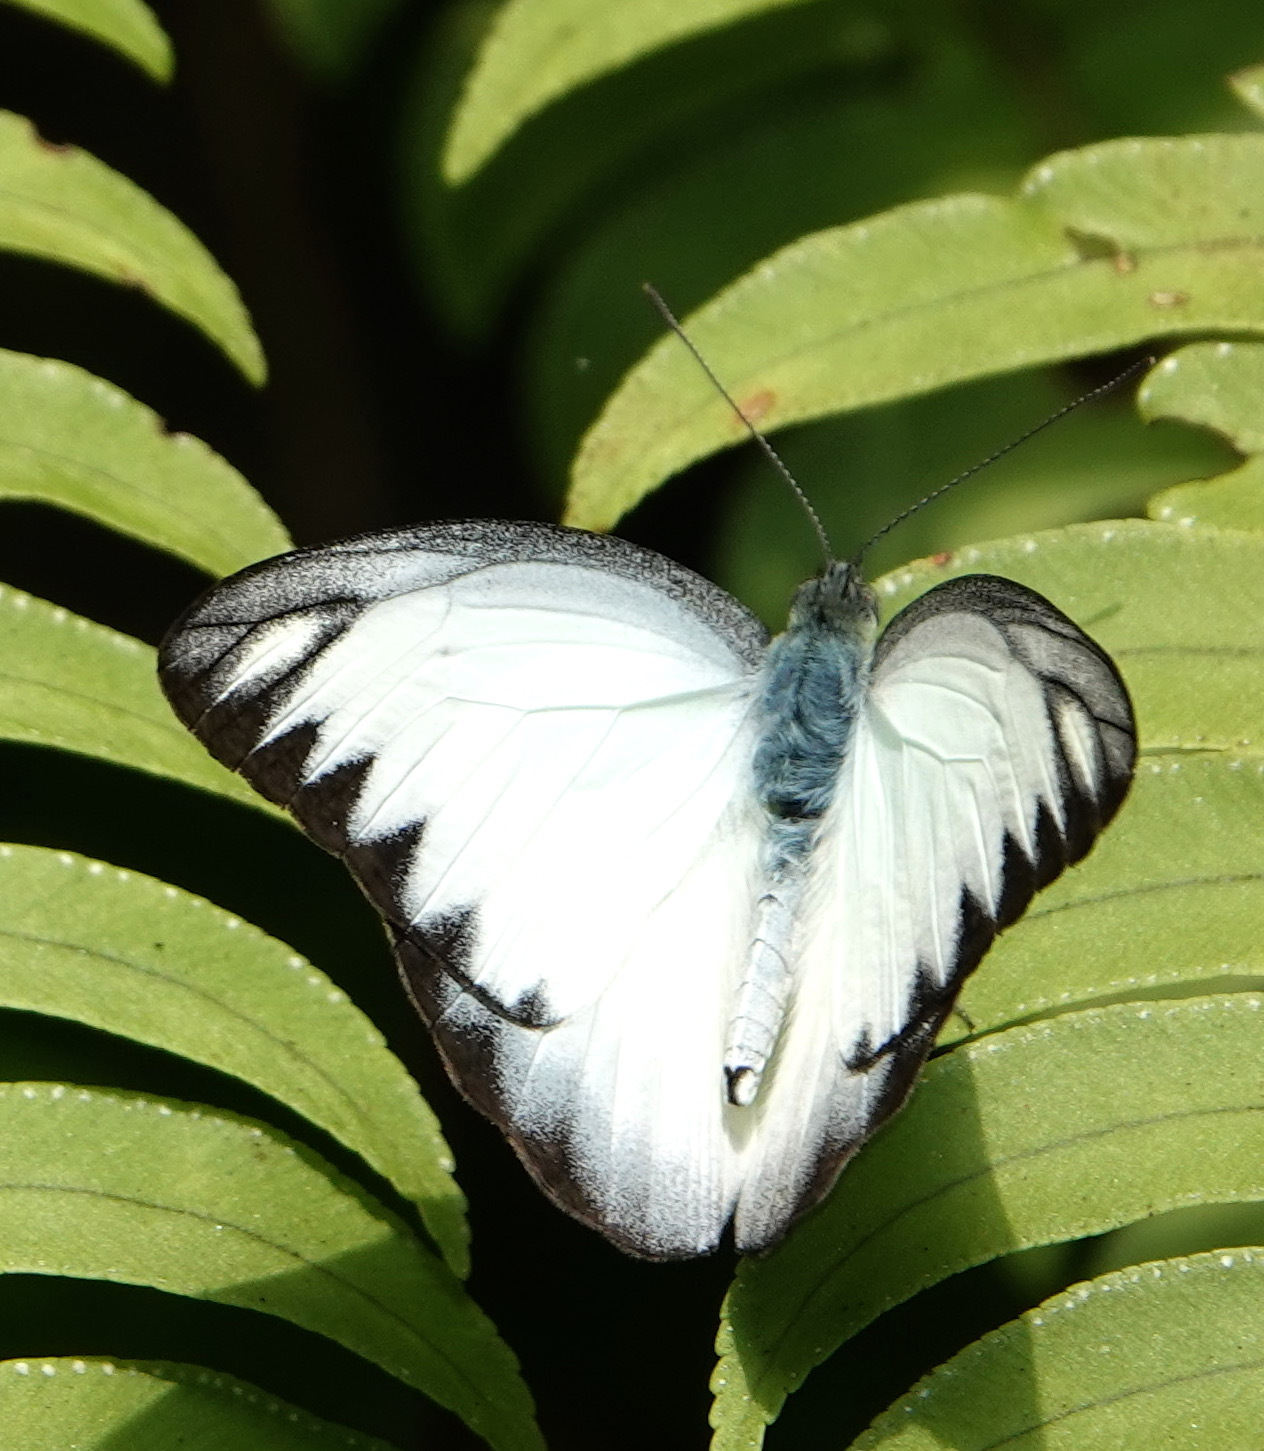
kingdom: Animalia
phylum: Arthropoda
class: Insecta
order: Lepidoptera
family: Pieridae
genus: Appias
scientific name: Appias libythea
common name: Striped albatross
